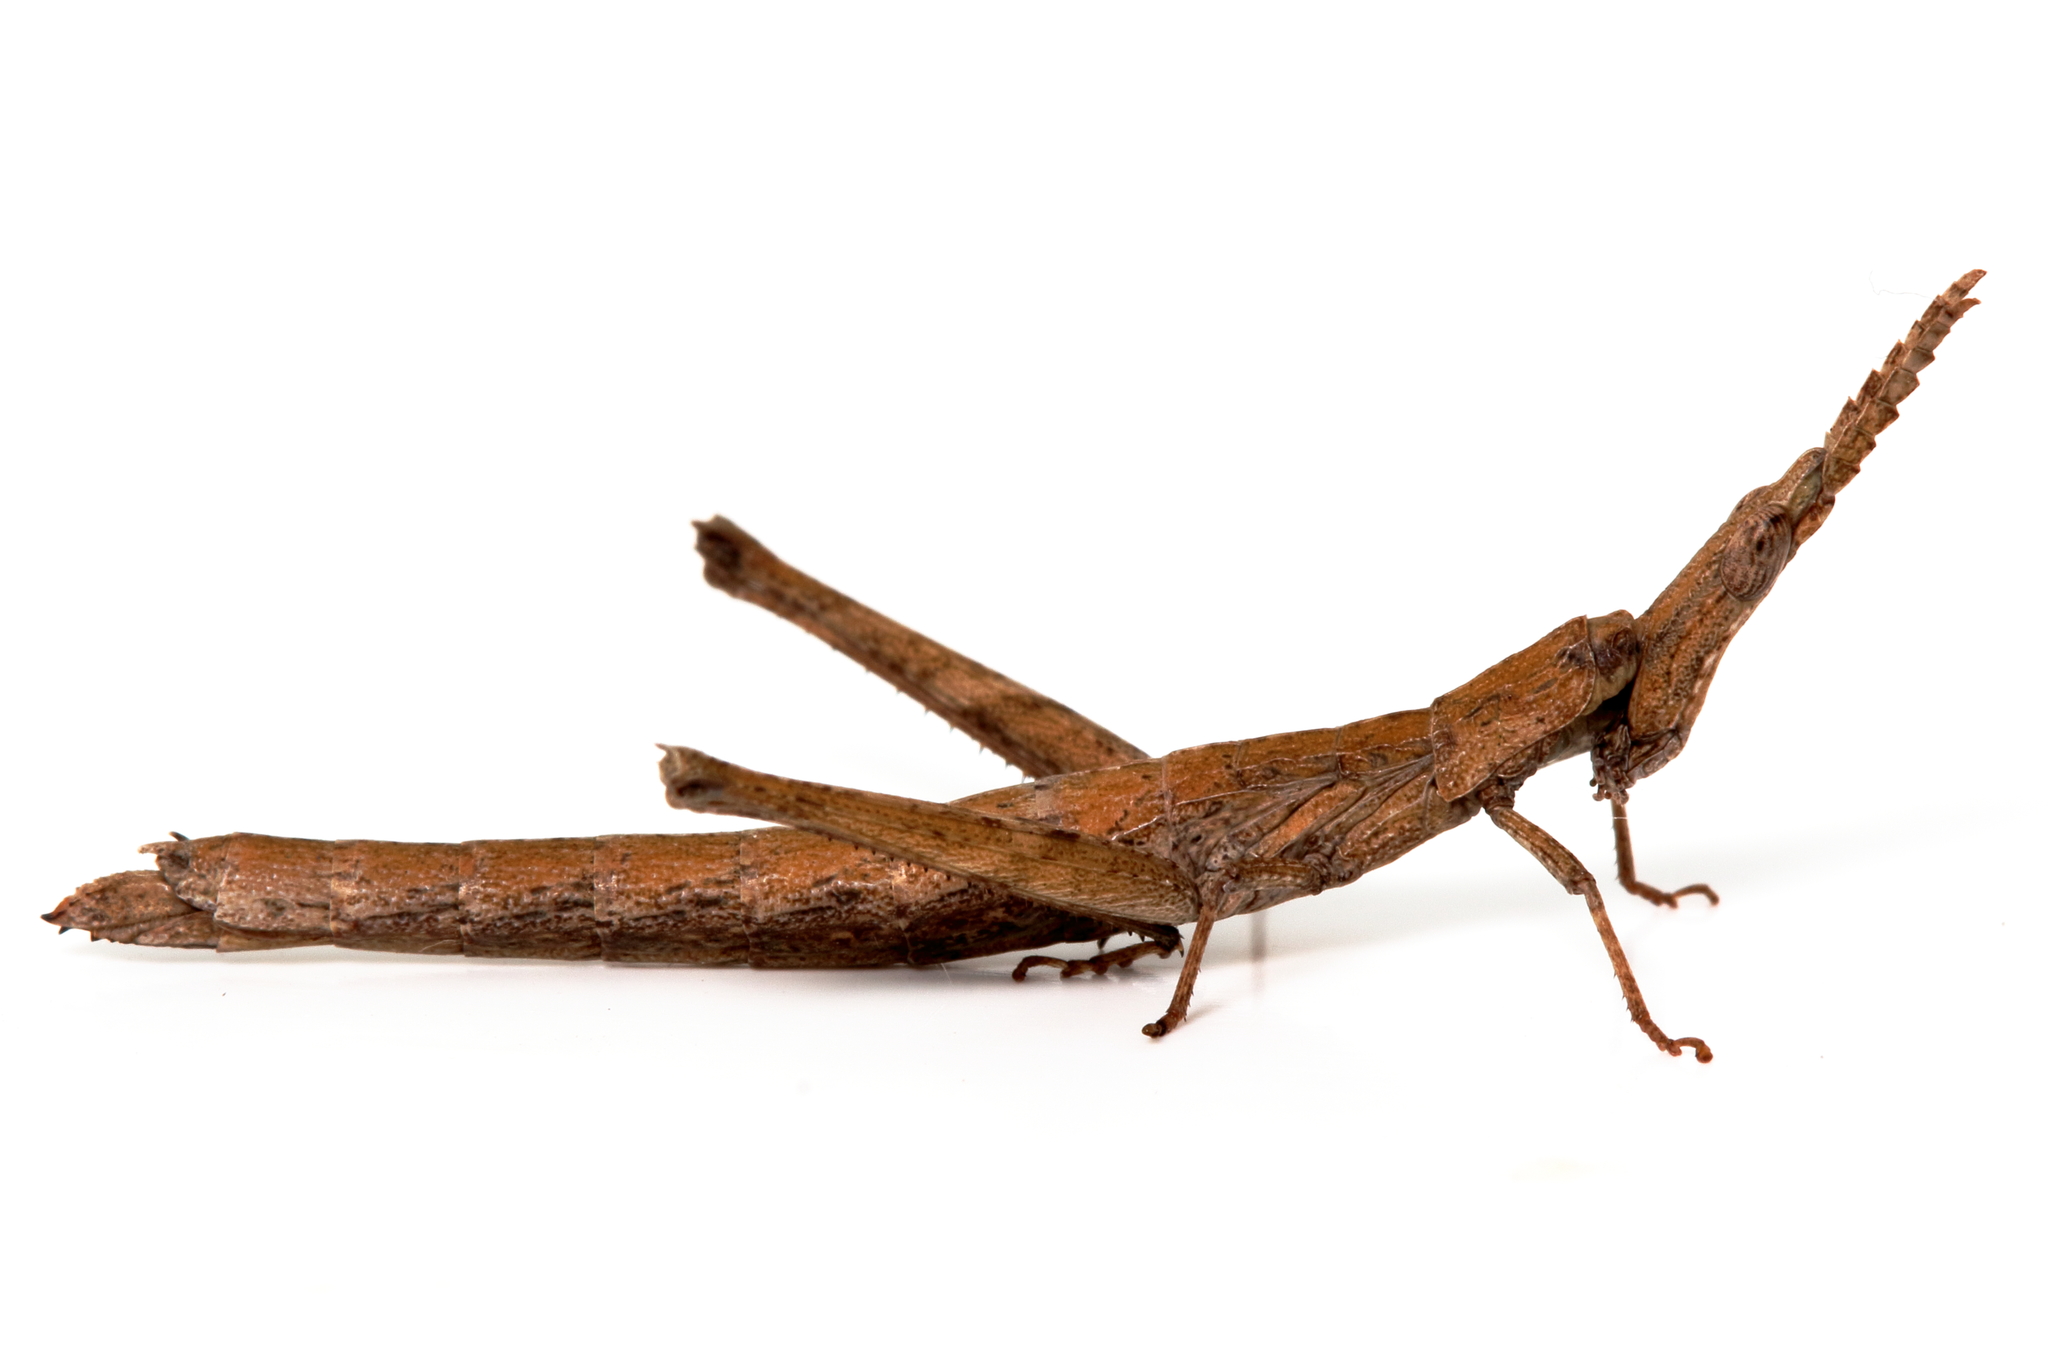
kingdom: Animalia
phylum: Arthropoda
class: Insecta
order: Orthoptera
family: Morabidae
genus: Vandiemenella
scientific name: Vandiemenella viatica
